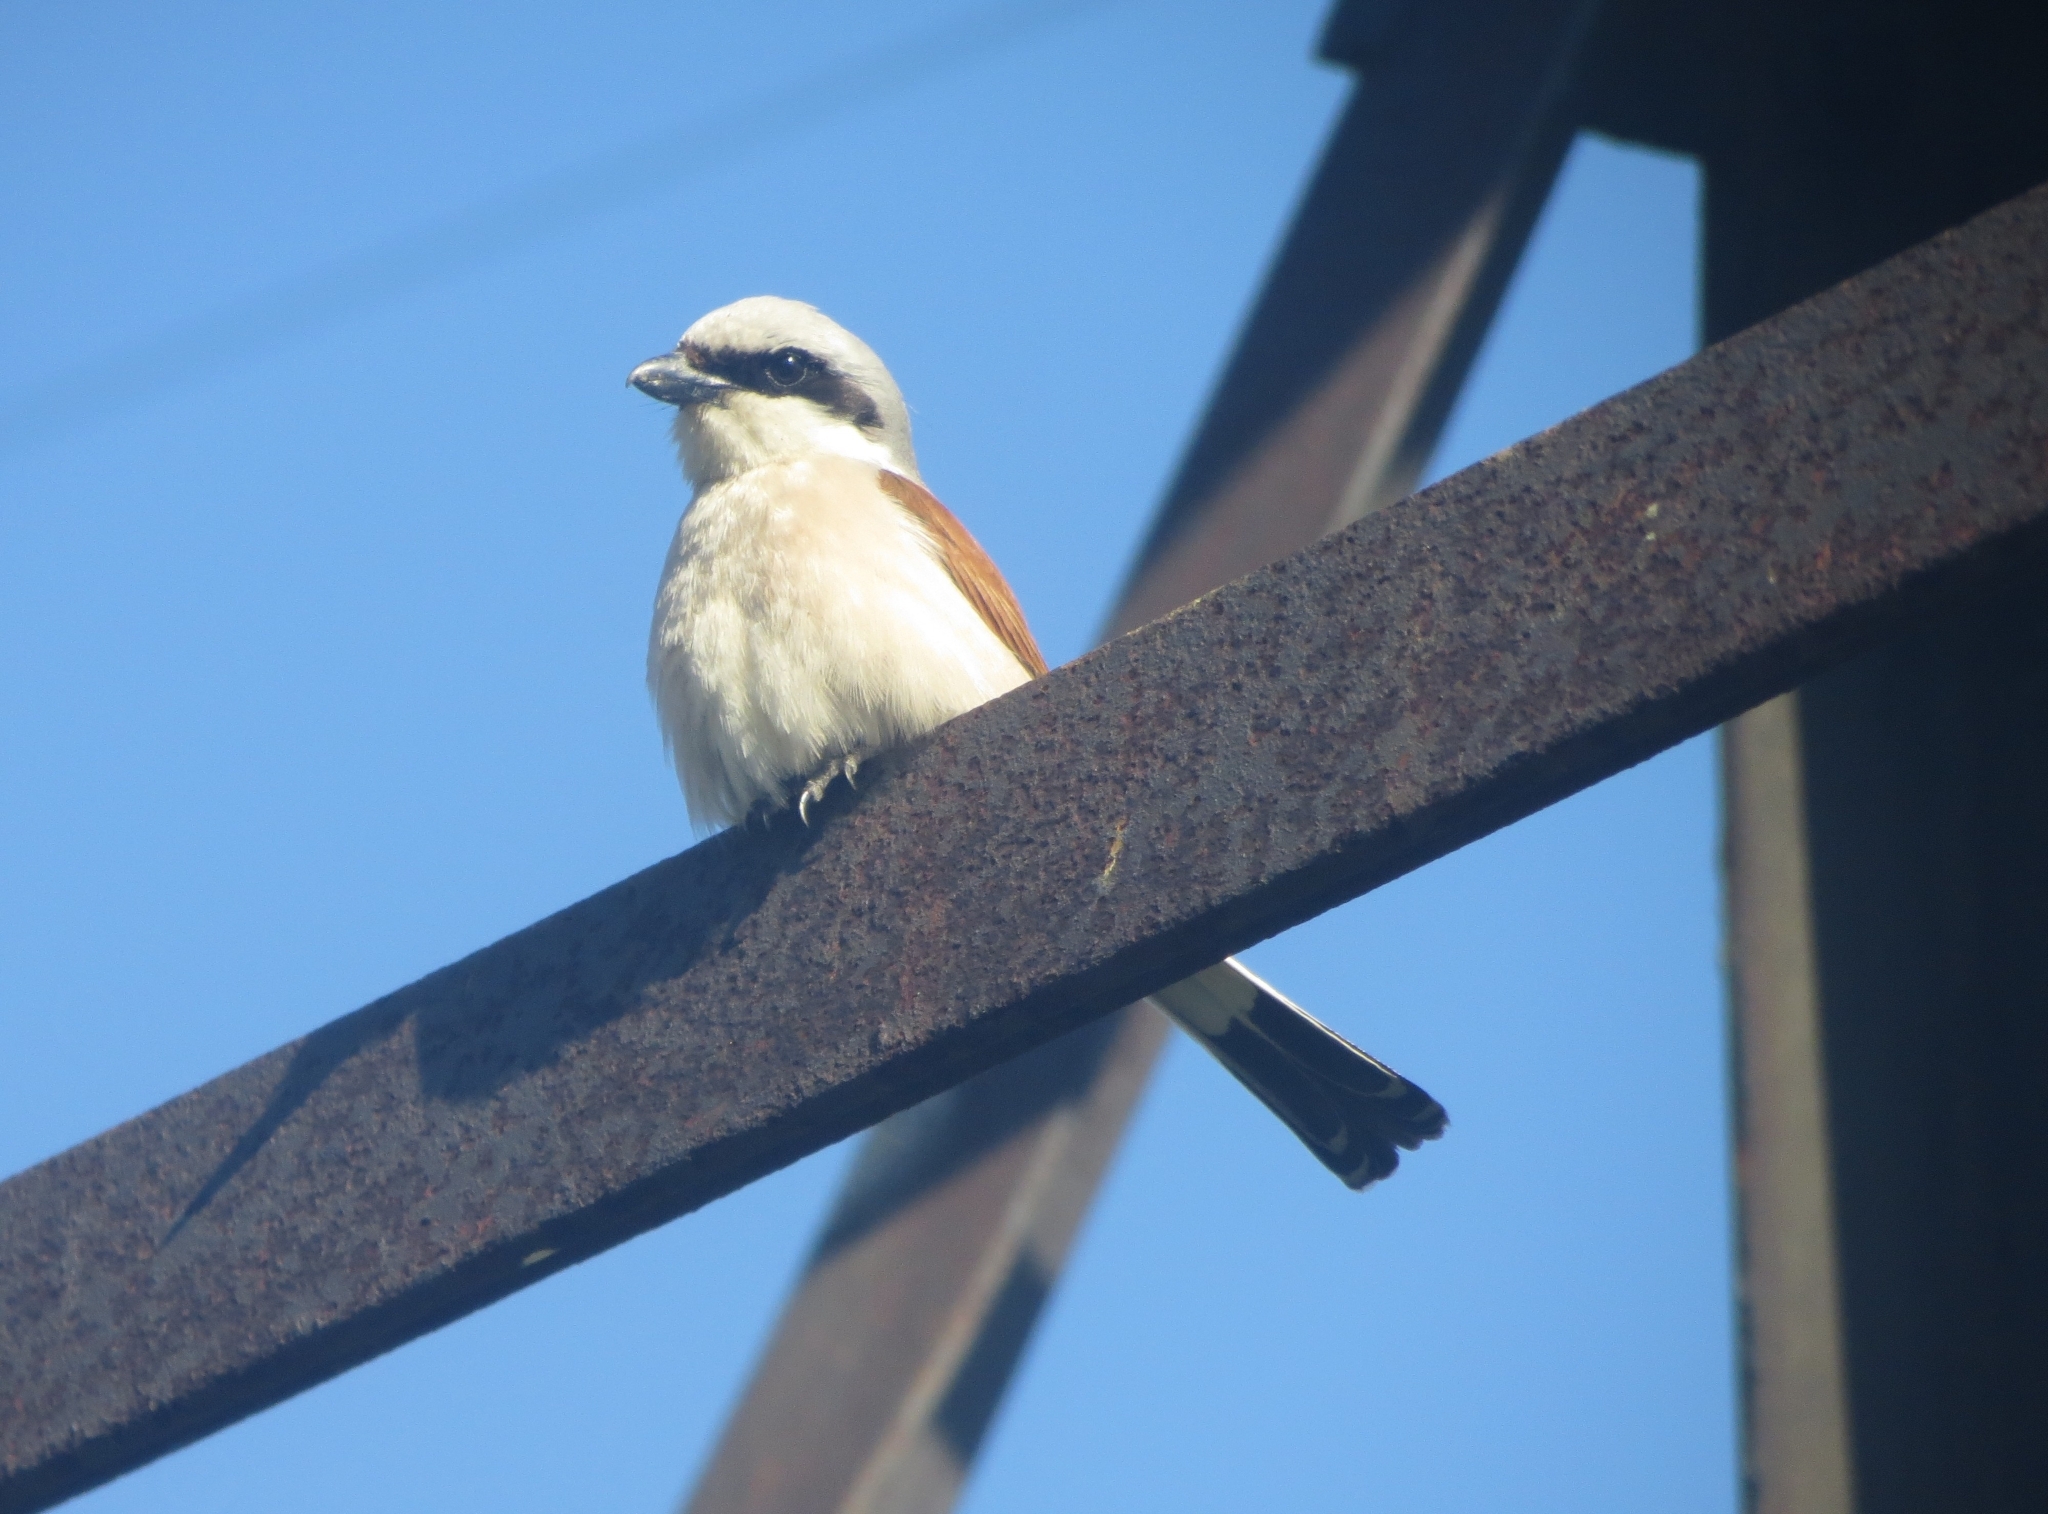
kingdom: Animalia
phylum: Chordata
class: Aves
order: Passeriformes
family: Laniidae
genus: Lanius
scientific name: Lanius collurio
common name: Red-backed shrike
